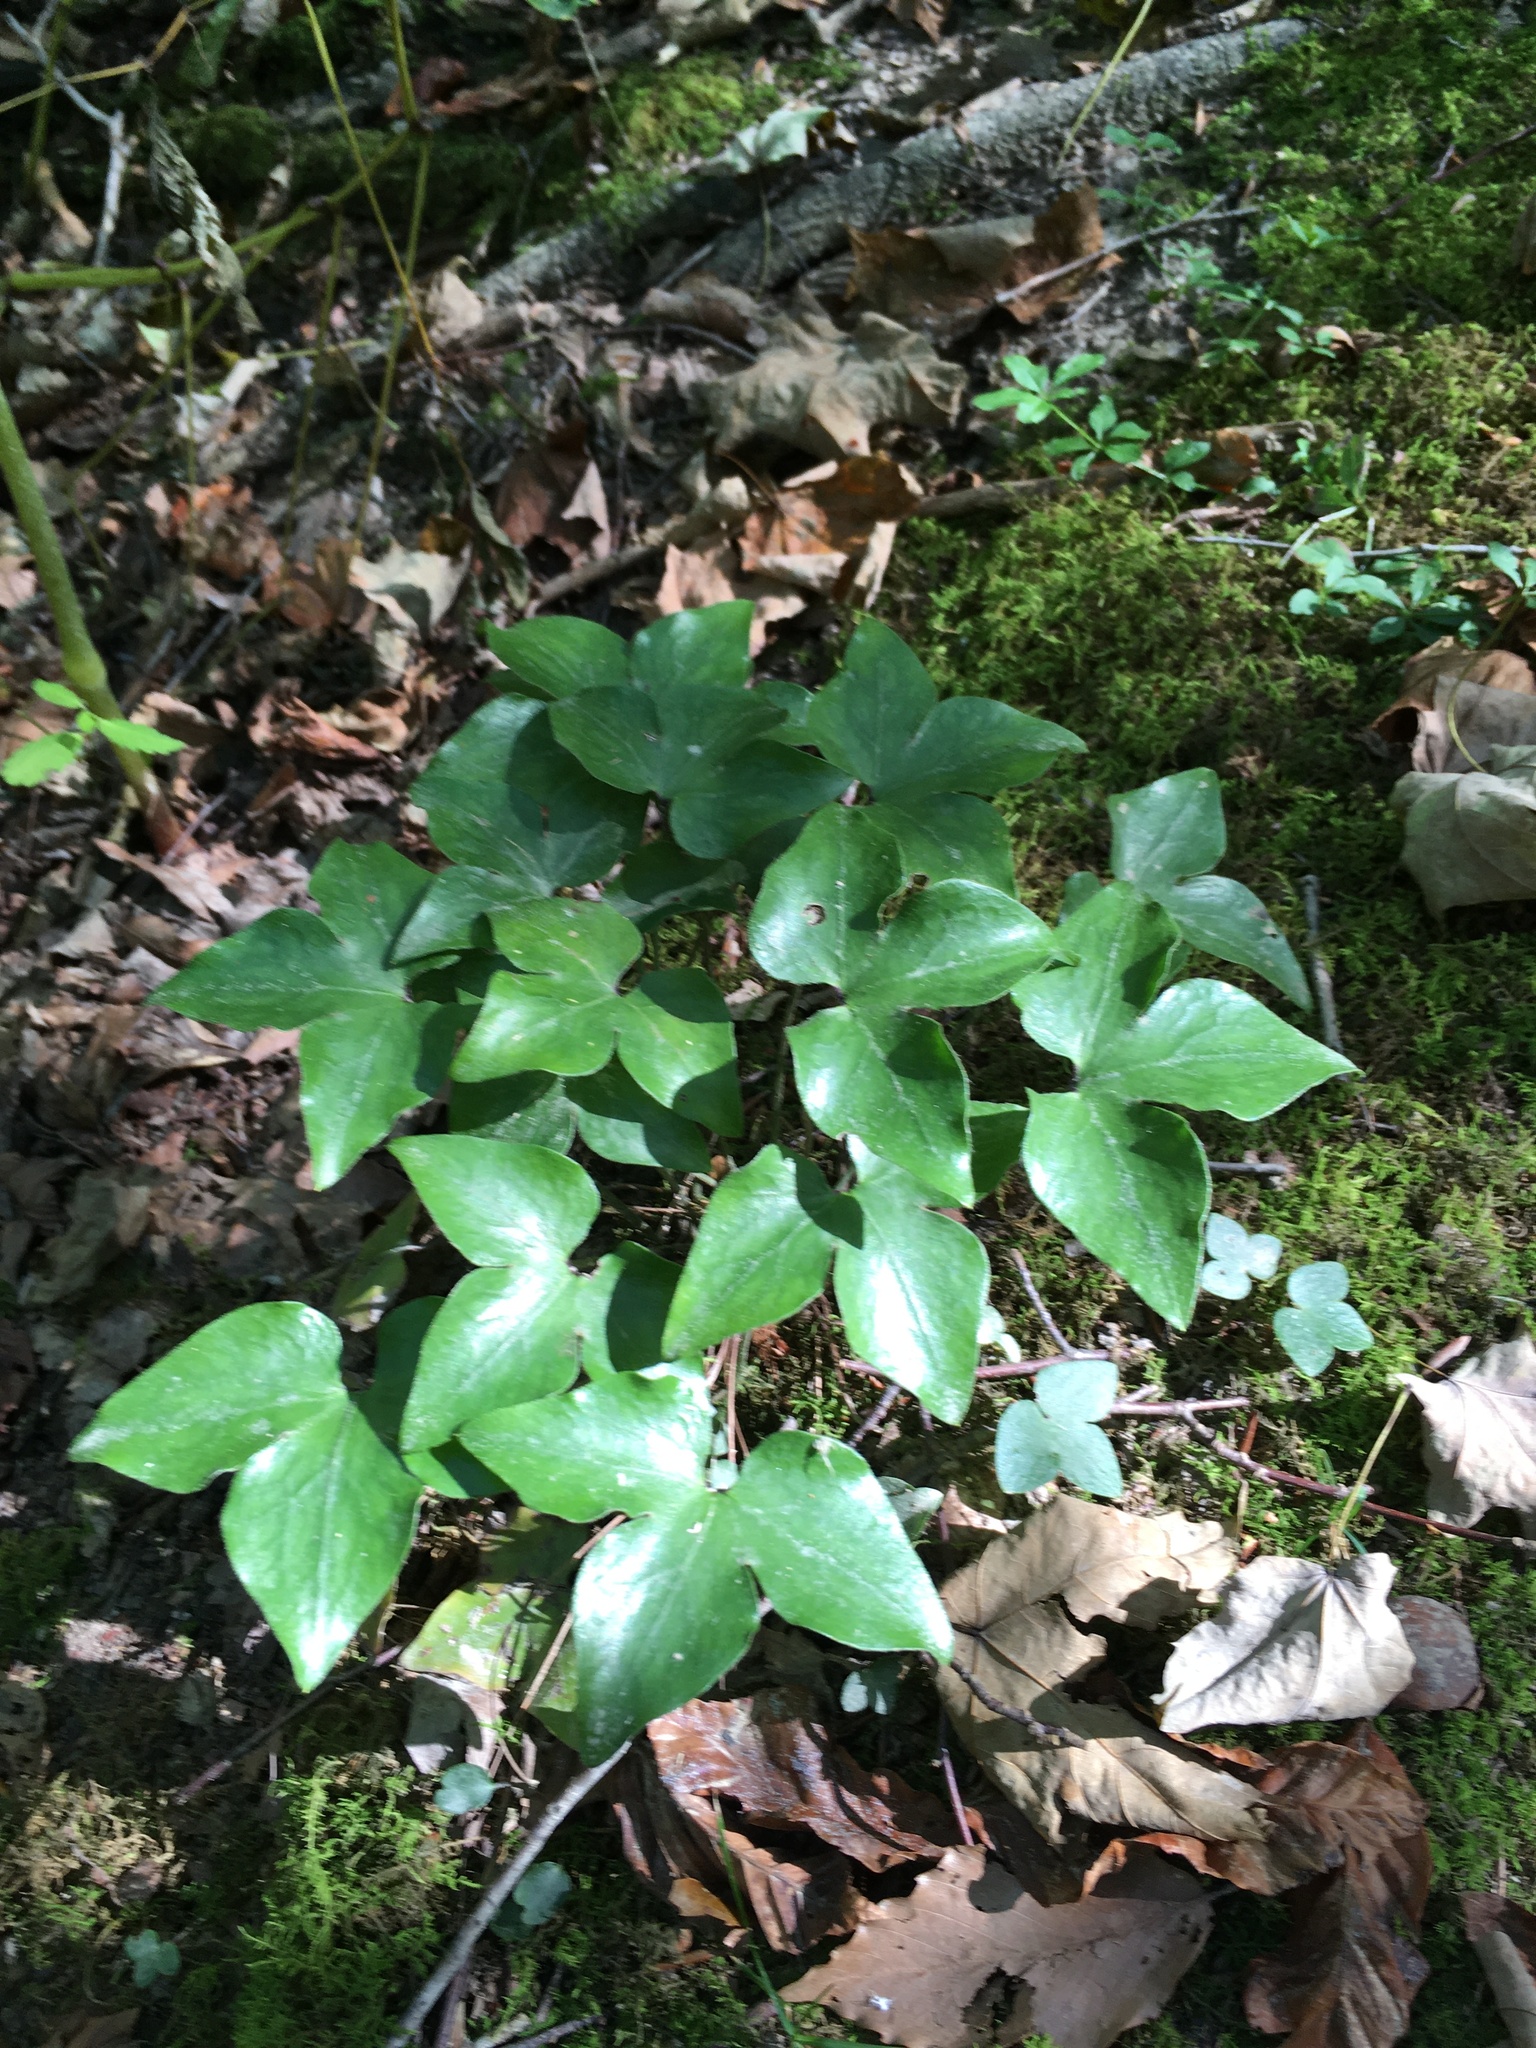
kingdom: Plantae
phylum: Tracheophyta
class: Magnoliopsida
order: Ranunculales
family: Ranunculaceae
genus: Hepatica
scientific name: Hepatica acutiloba
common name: Sharp-lobed hepatica
